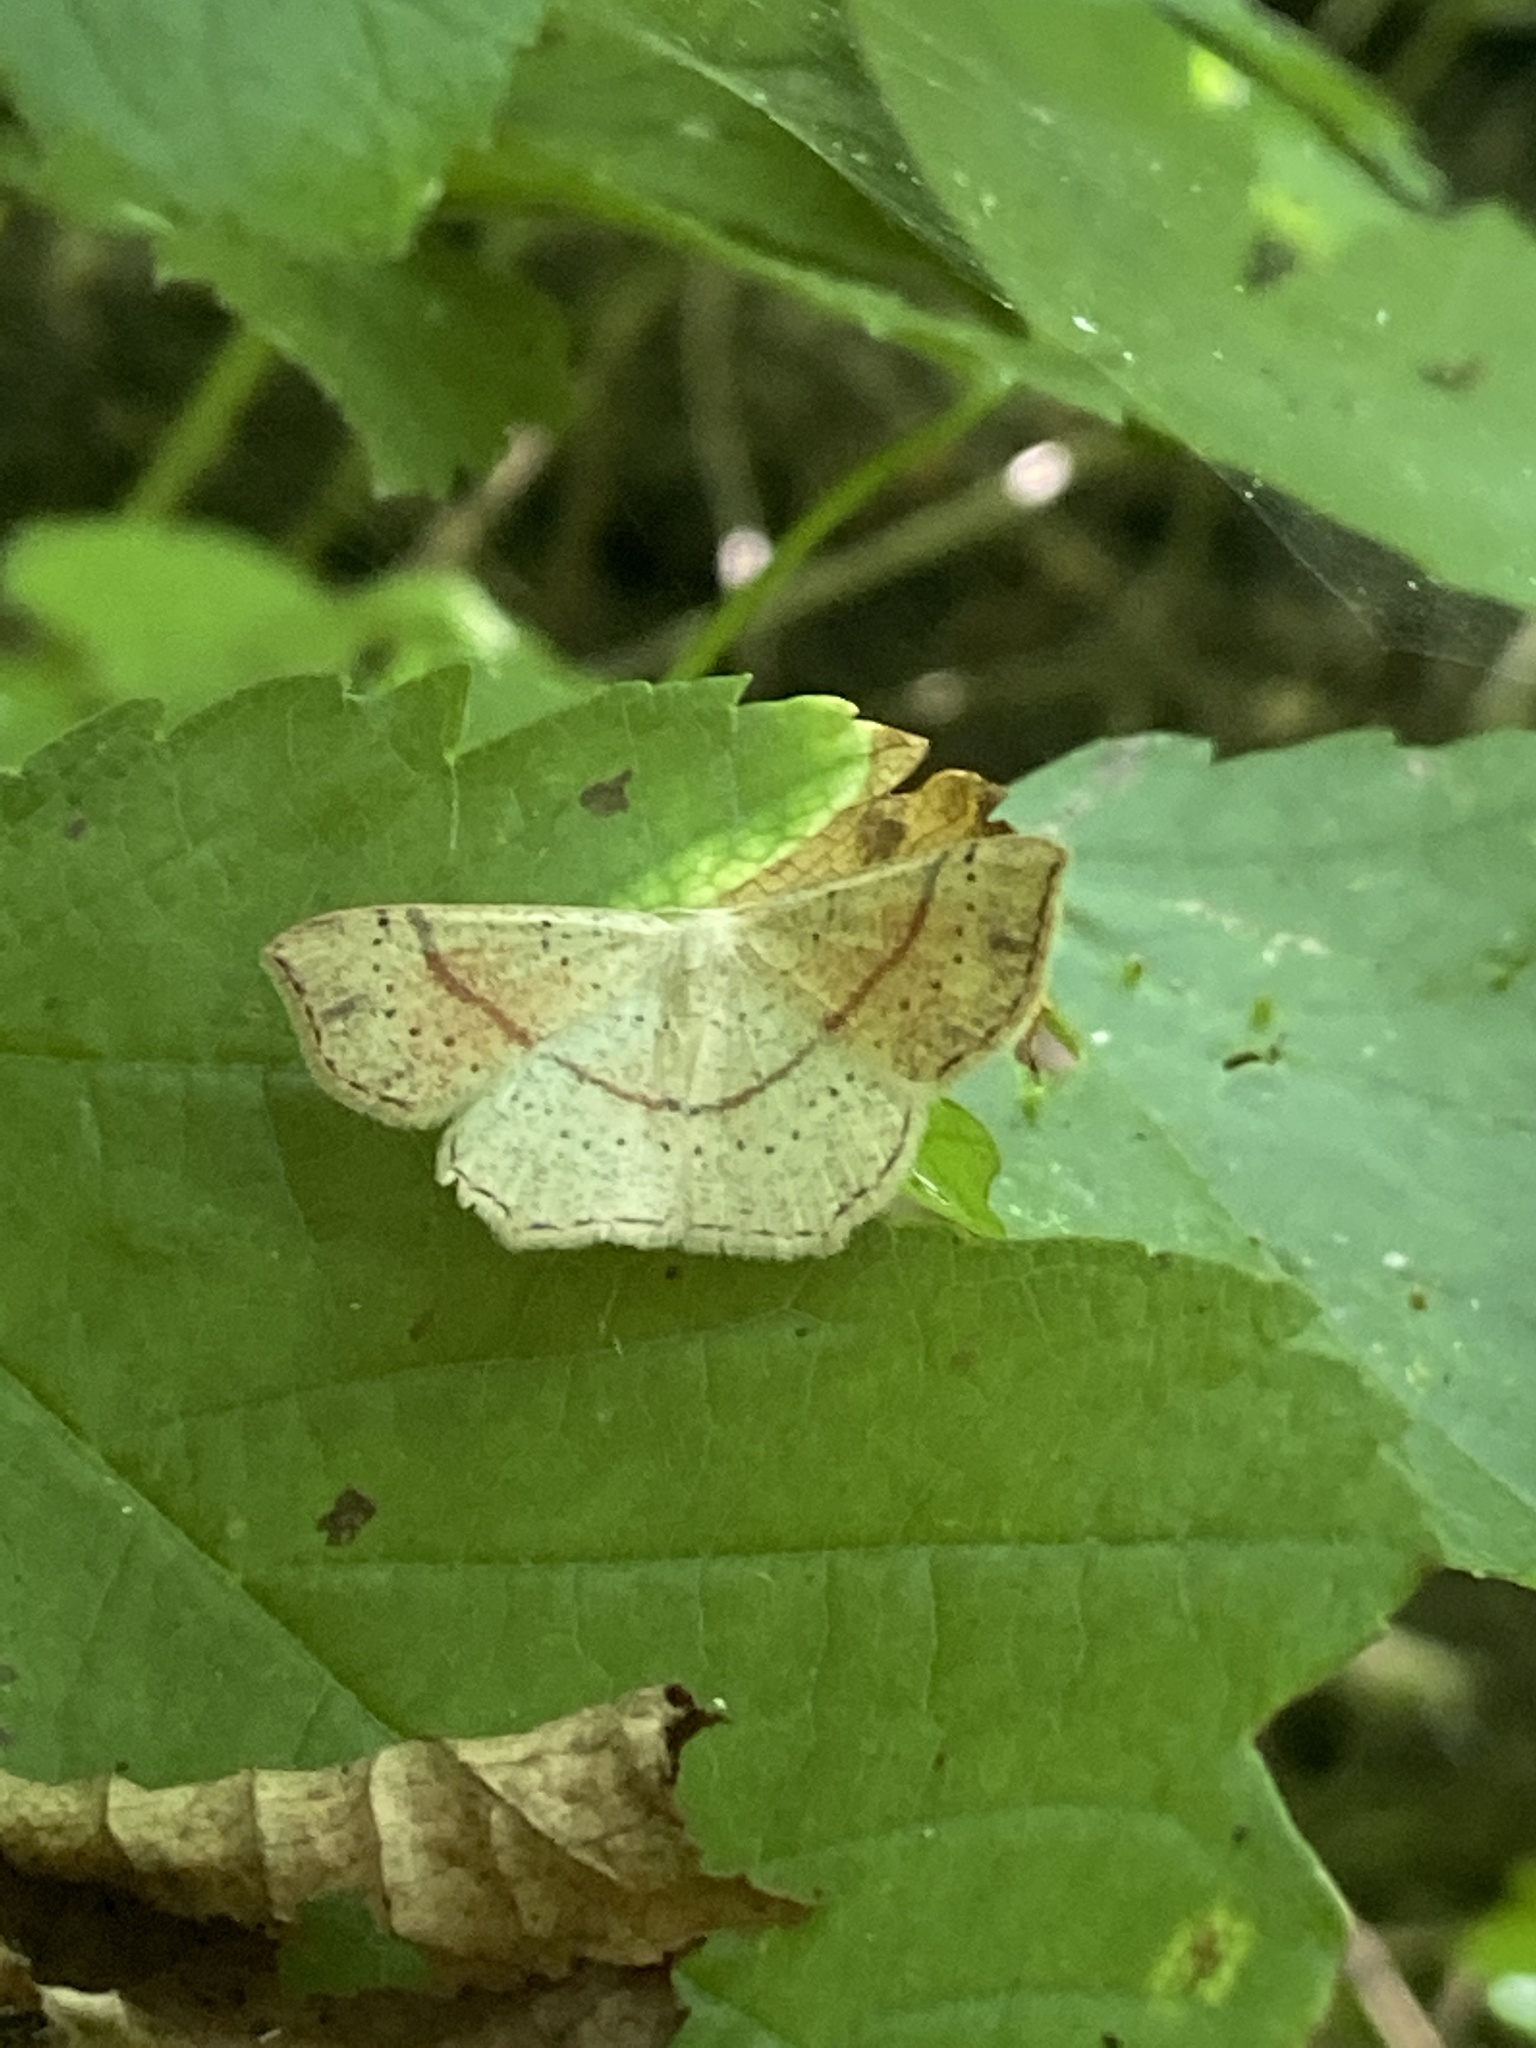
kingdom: Animalia
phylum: Arthropoda
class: Insecta
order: Lepidoptera
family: Geometridae
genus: Cyclophora
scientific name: Cyclophora punctaria
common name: Maiden's blush
